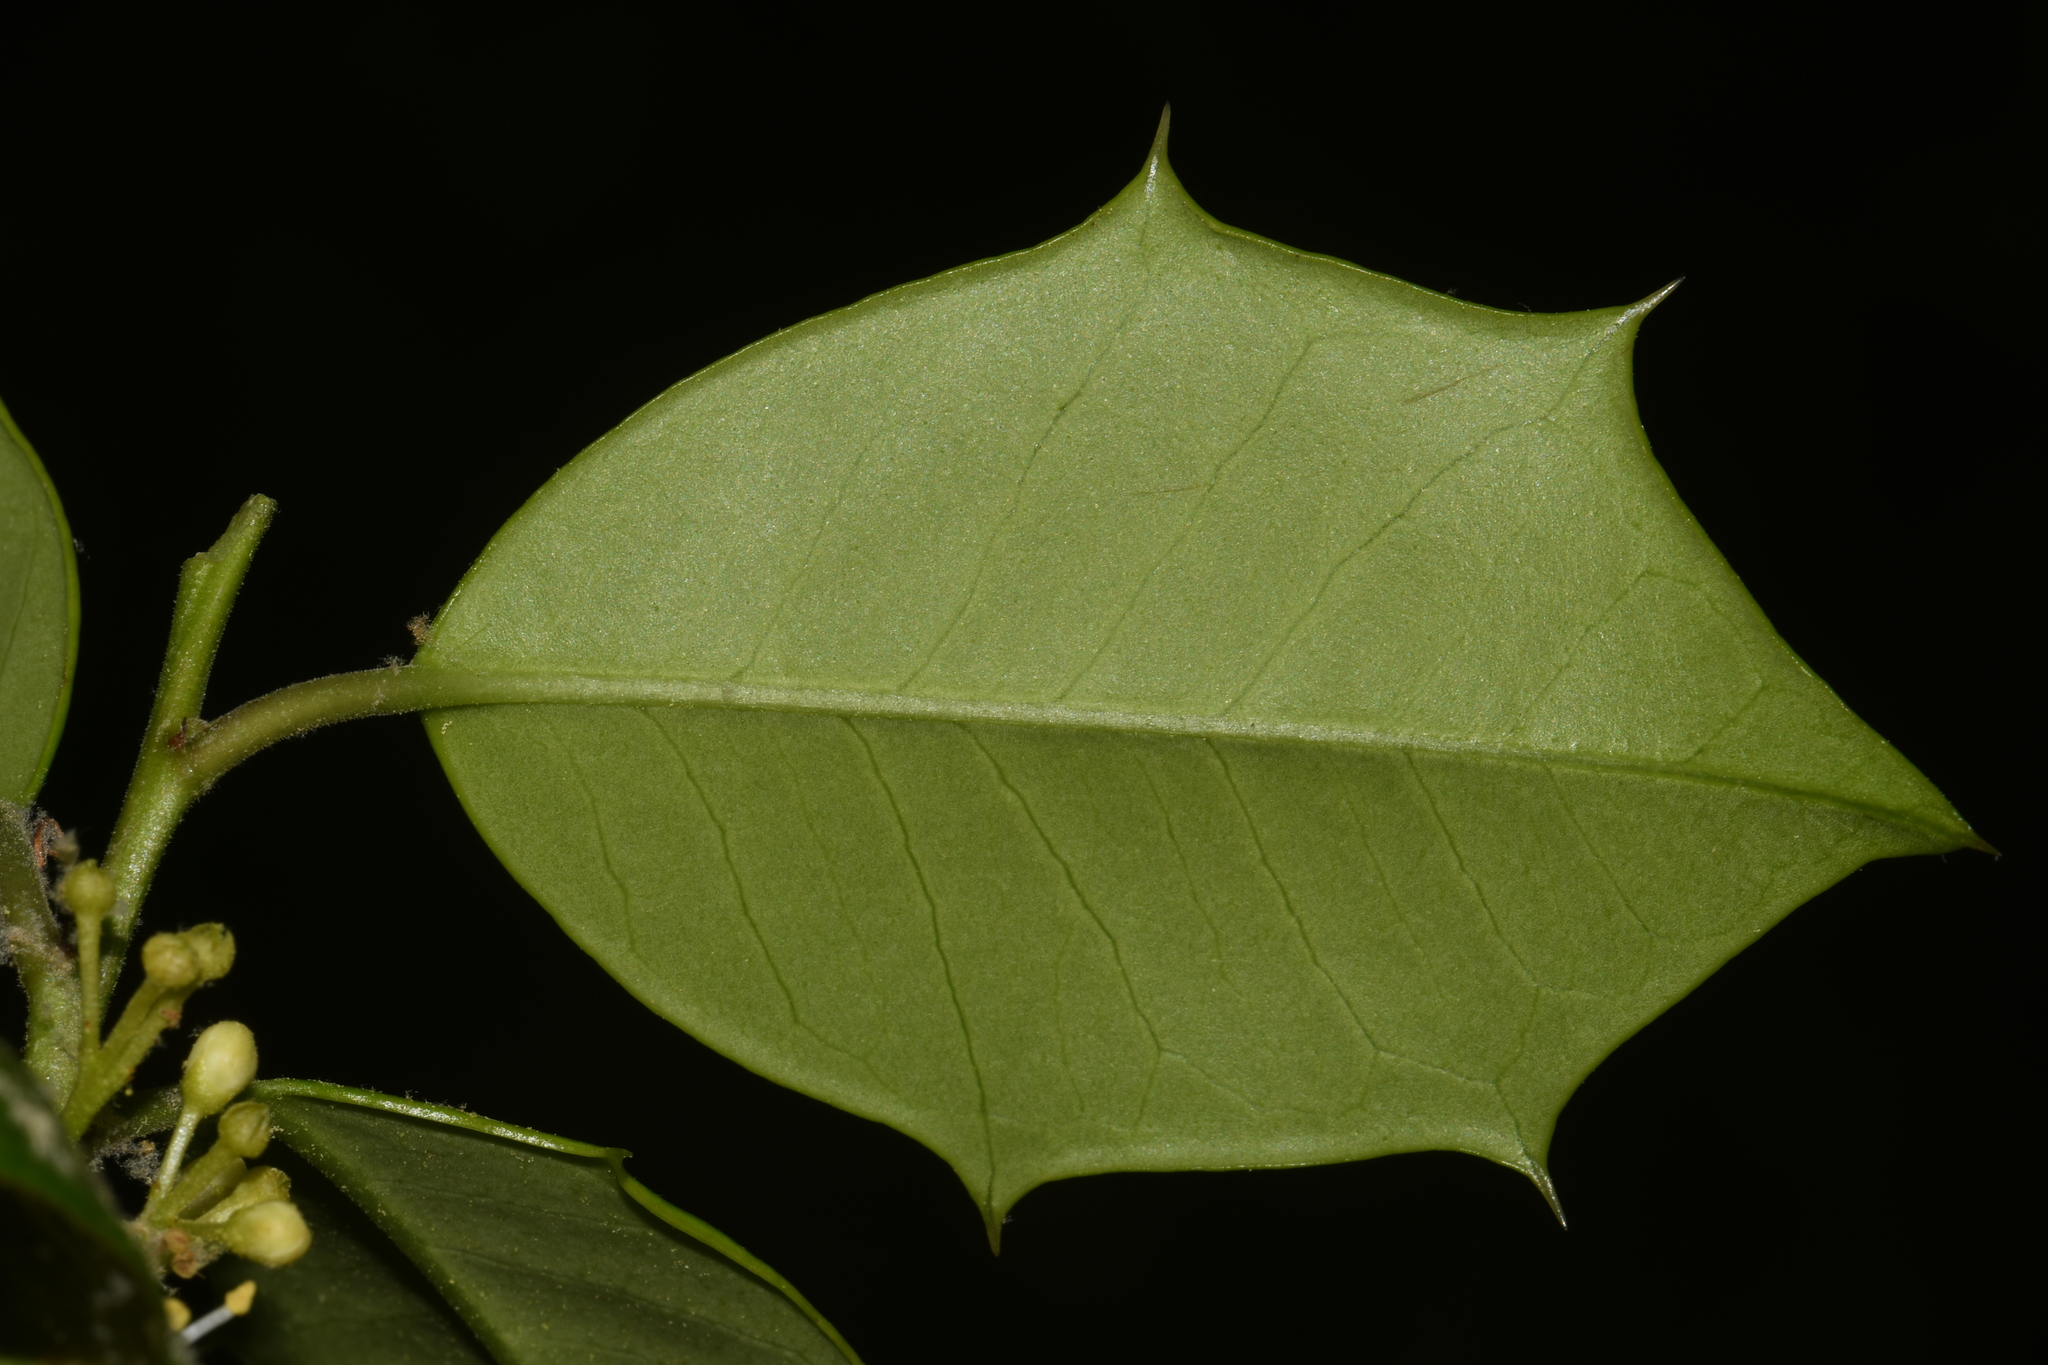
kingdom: Plantae
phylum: Tracheophyta
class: Magnoliopsida
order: Aquifoliales
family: Aquifoliaceae
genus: Ilex
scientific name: Ilex opaca
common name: American holly
